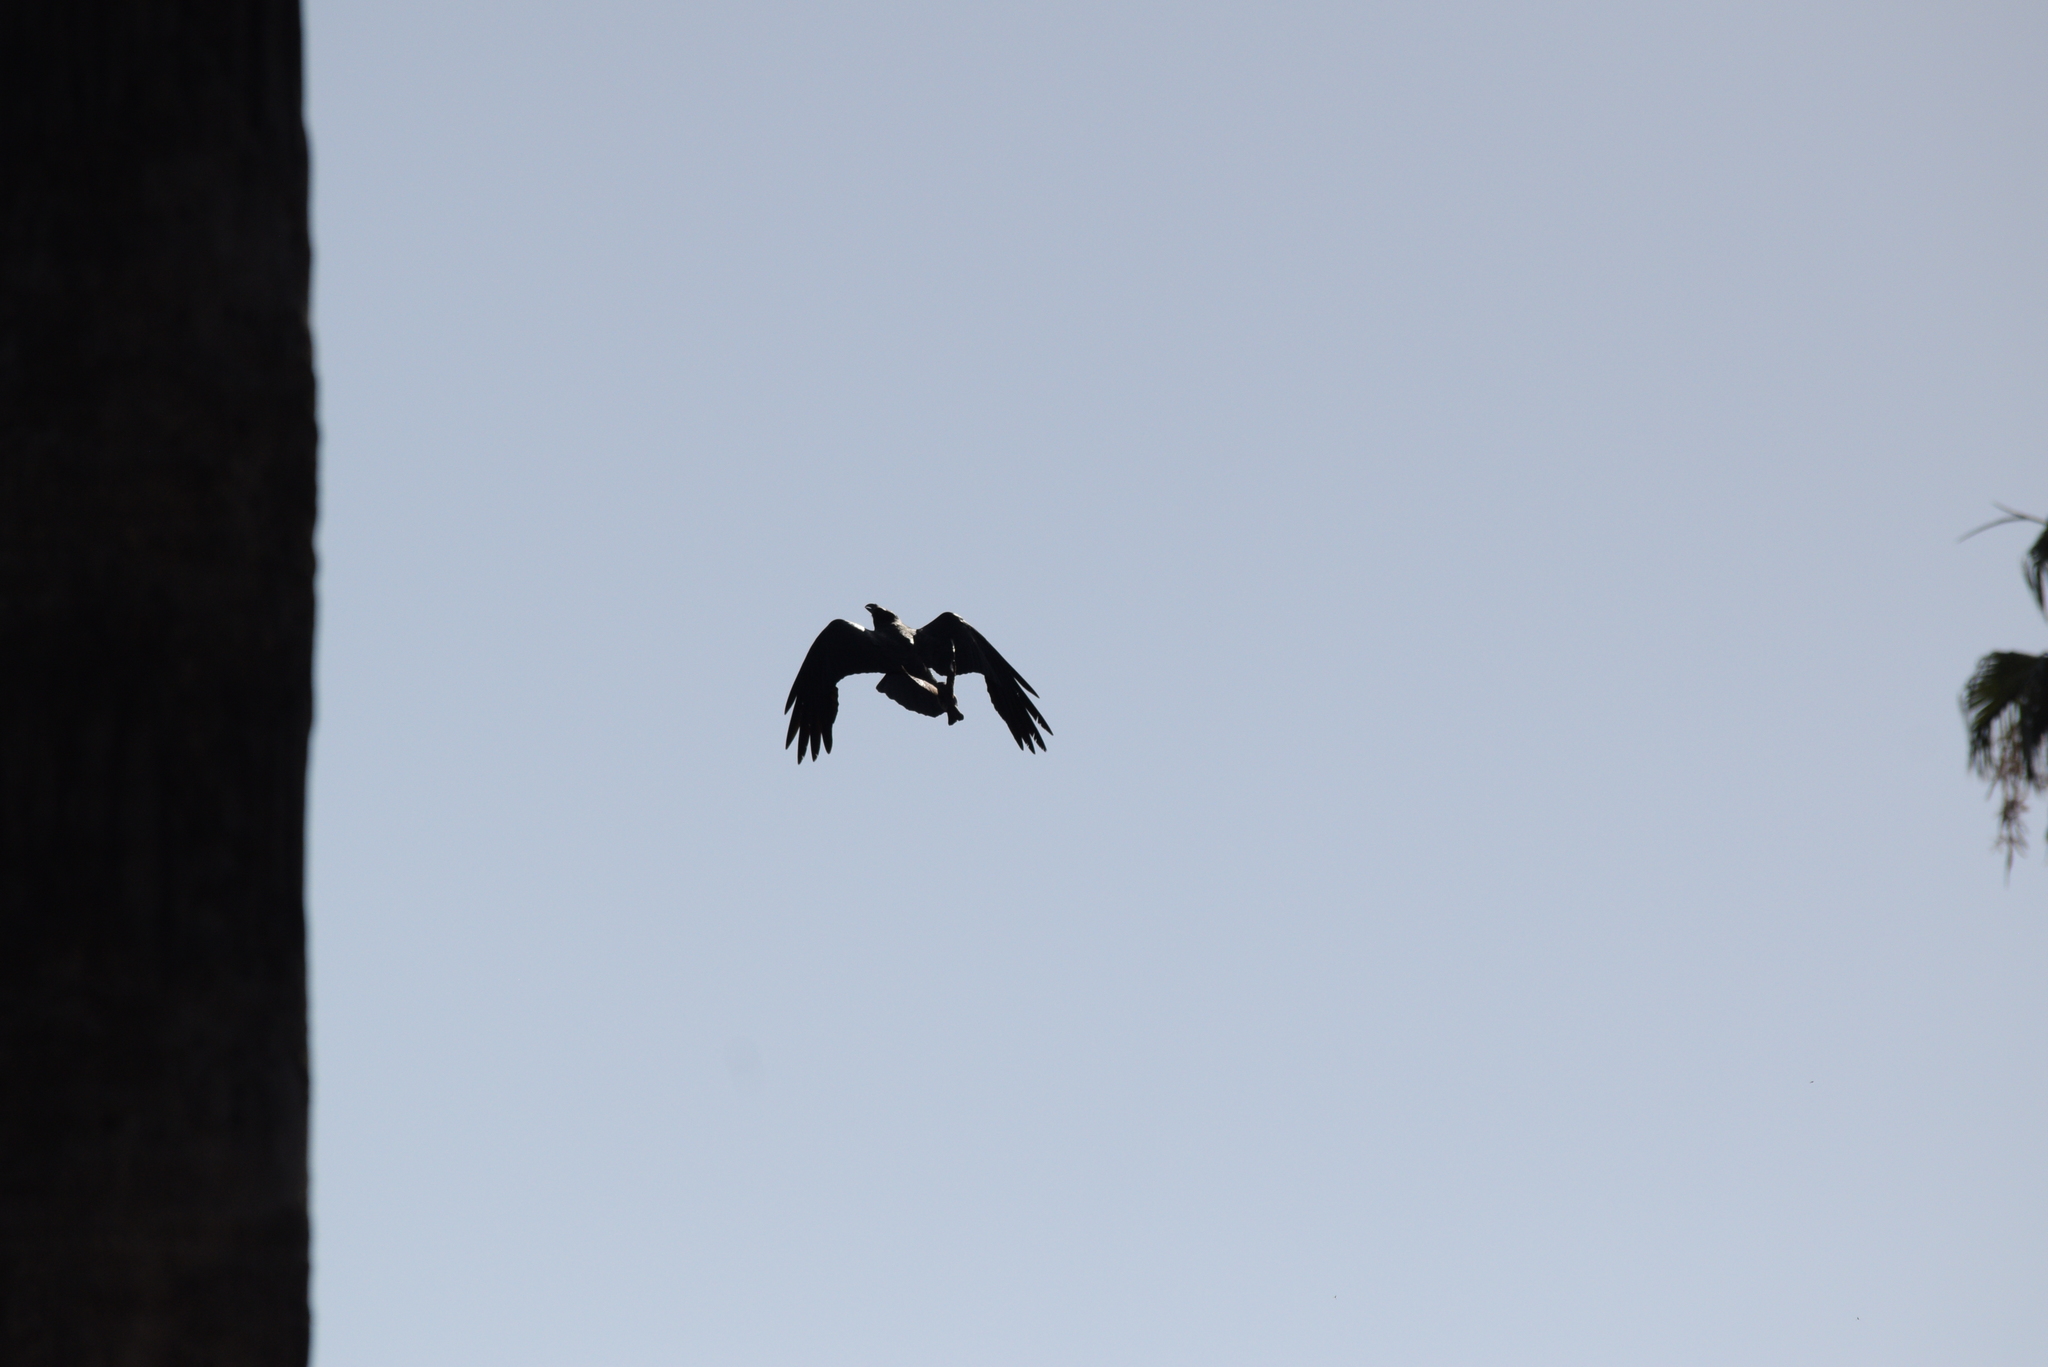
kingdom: Animalia
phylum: Chordata
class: Aves
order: Passeriformes
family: Mimidae
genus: Mimus
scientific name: Mimus polyglottos
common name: Northern mockingbird
